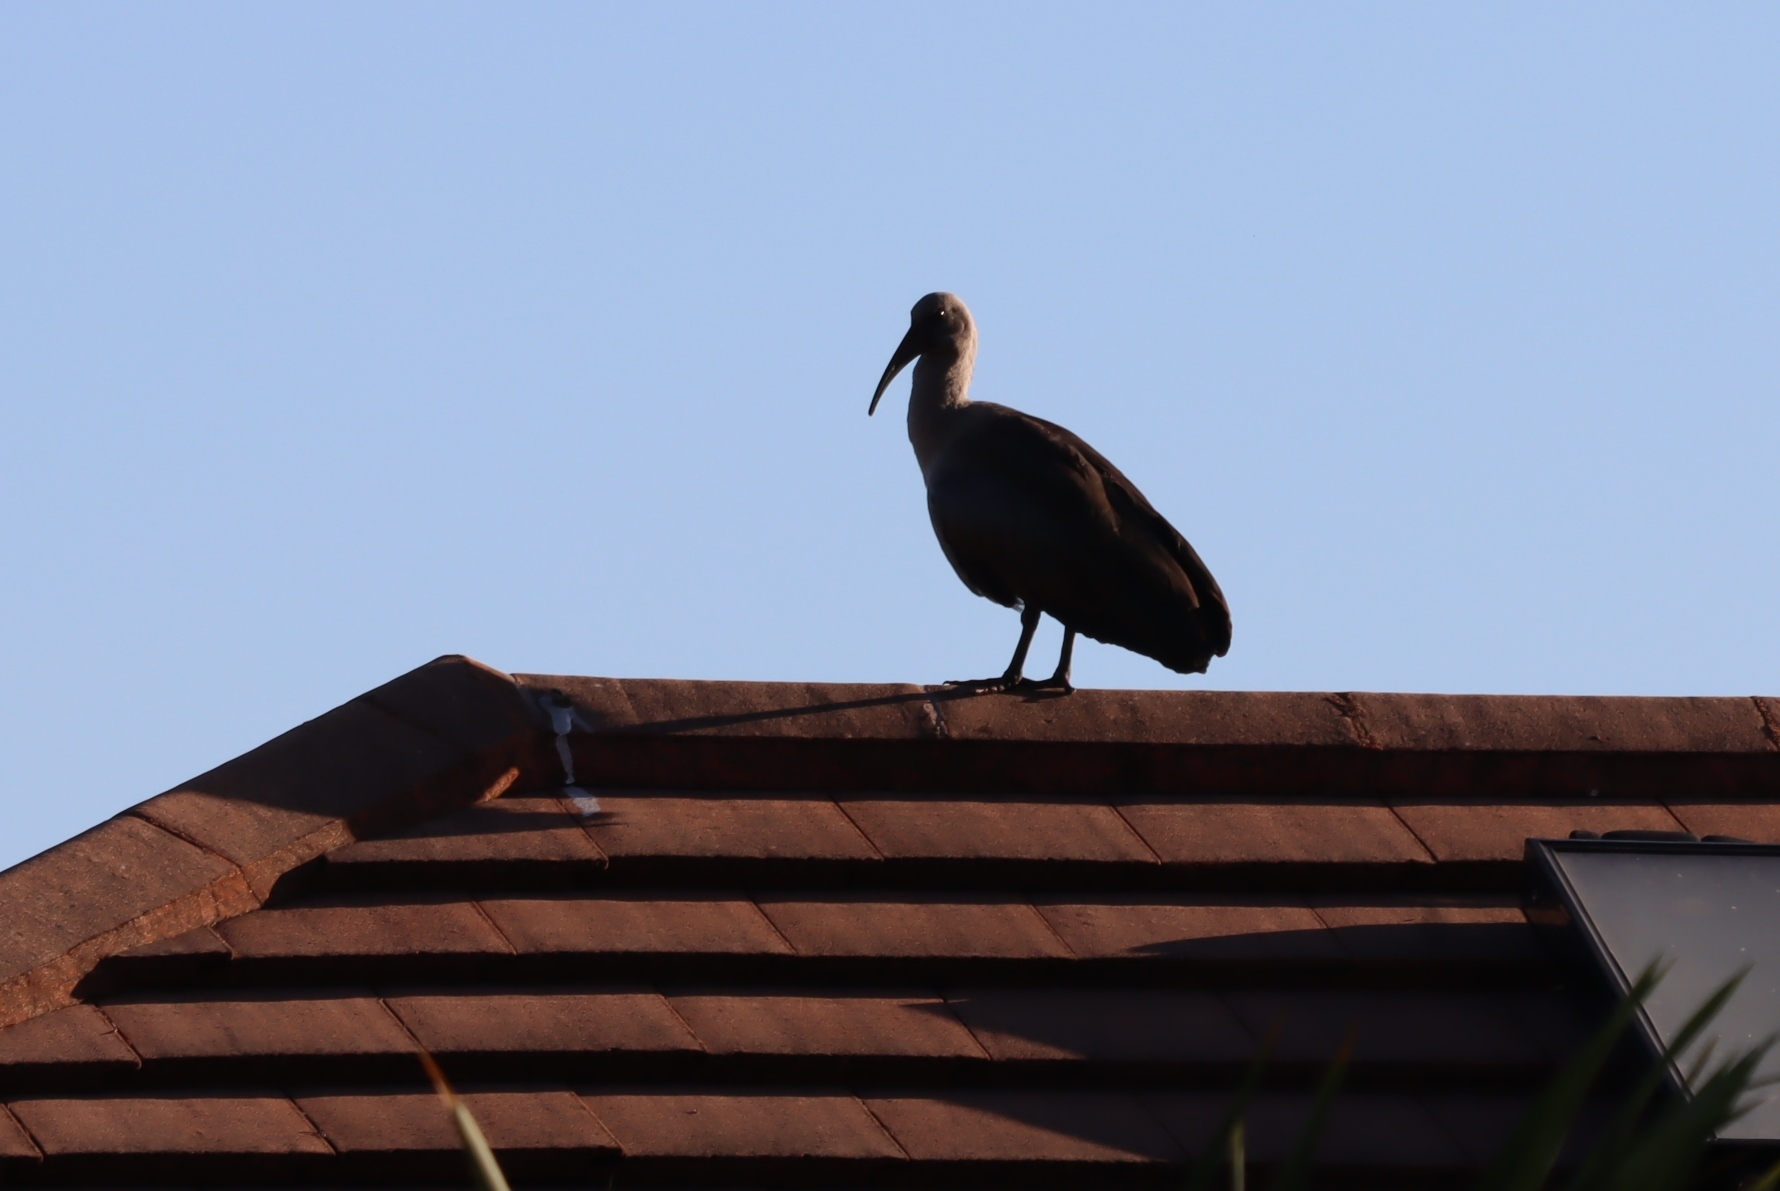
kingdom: Animalia
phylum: Chordata
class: Aves
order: Pelecaniformes
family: Threskiornithidae
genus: Bostrychia
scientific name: Bostrychia hagedash
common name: Hadada ibis
